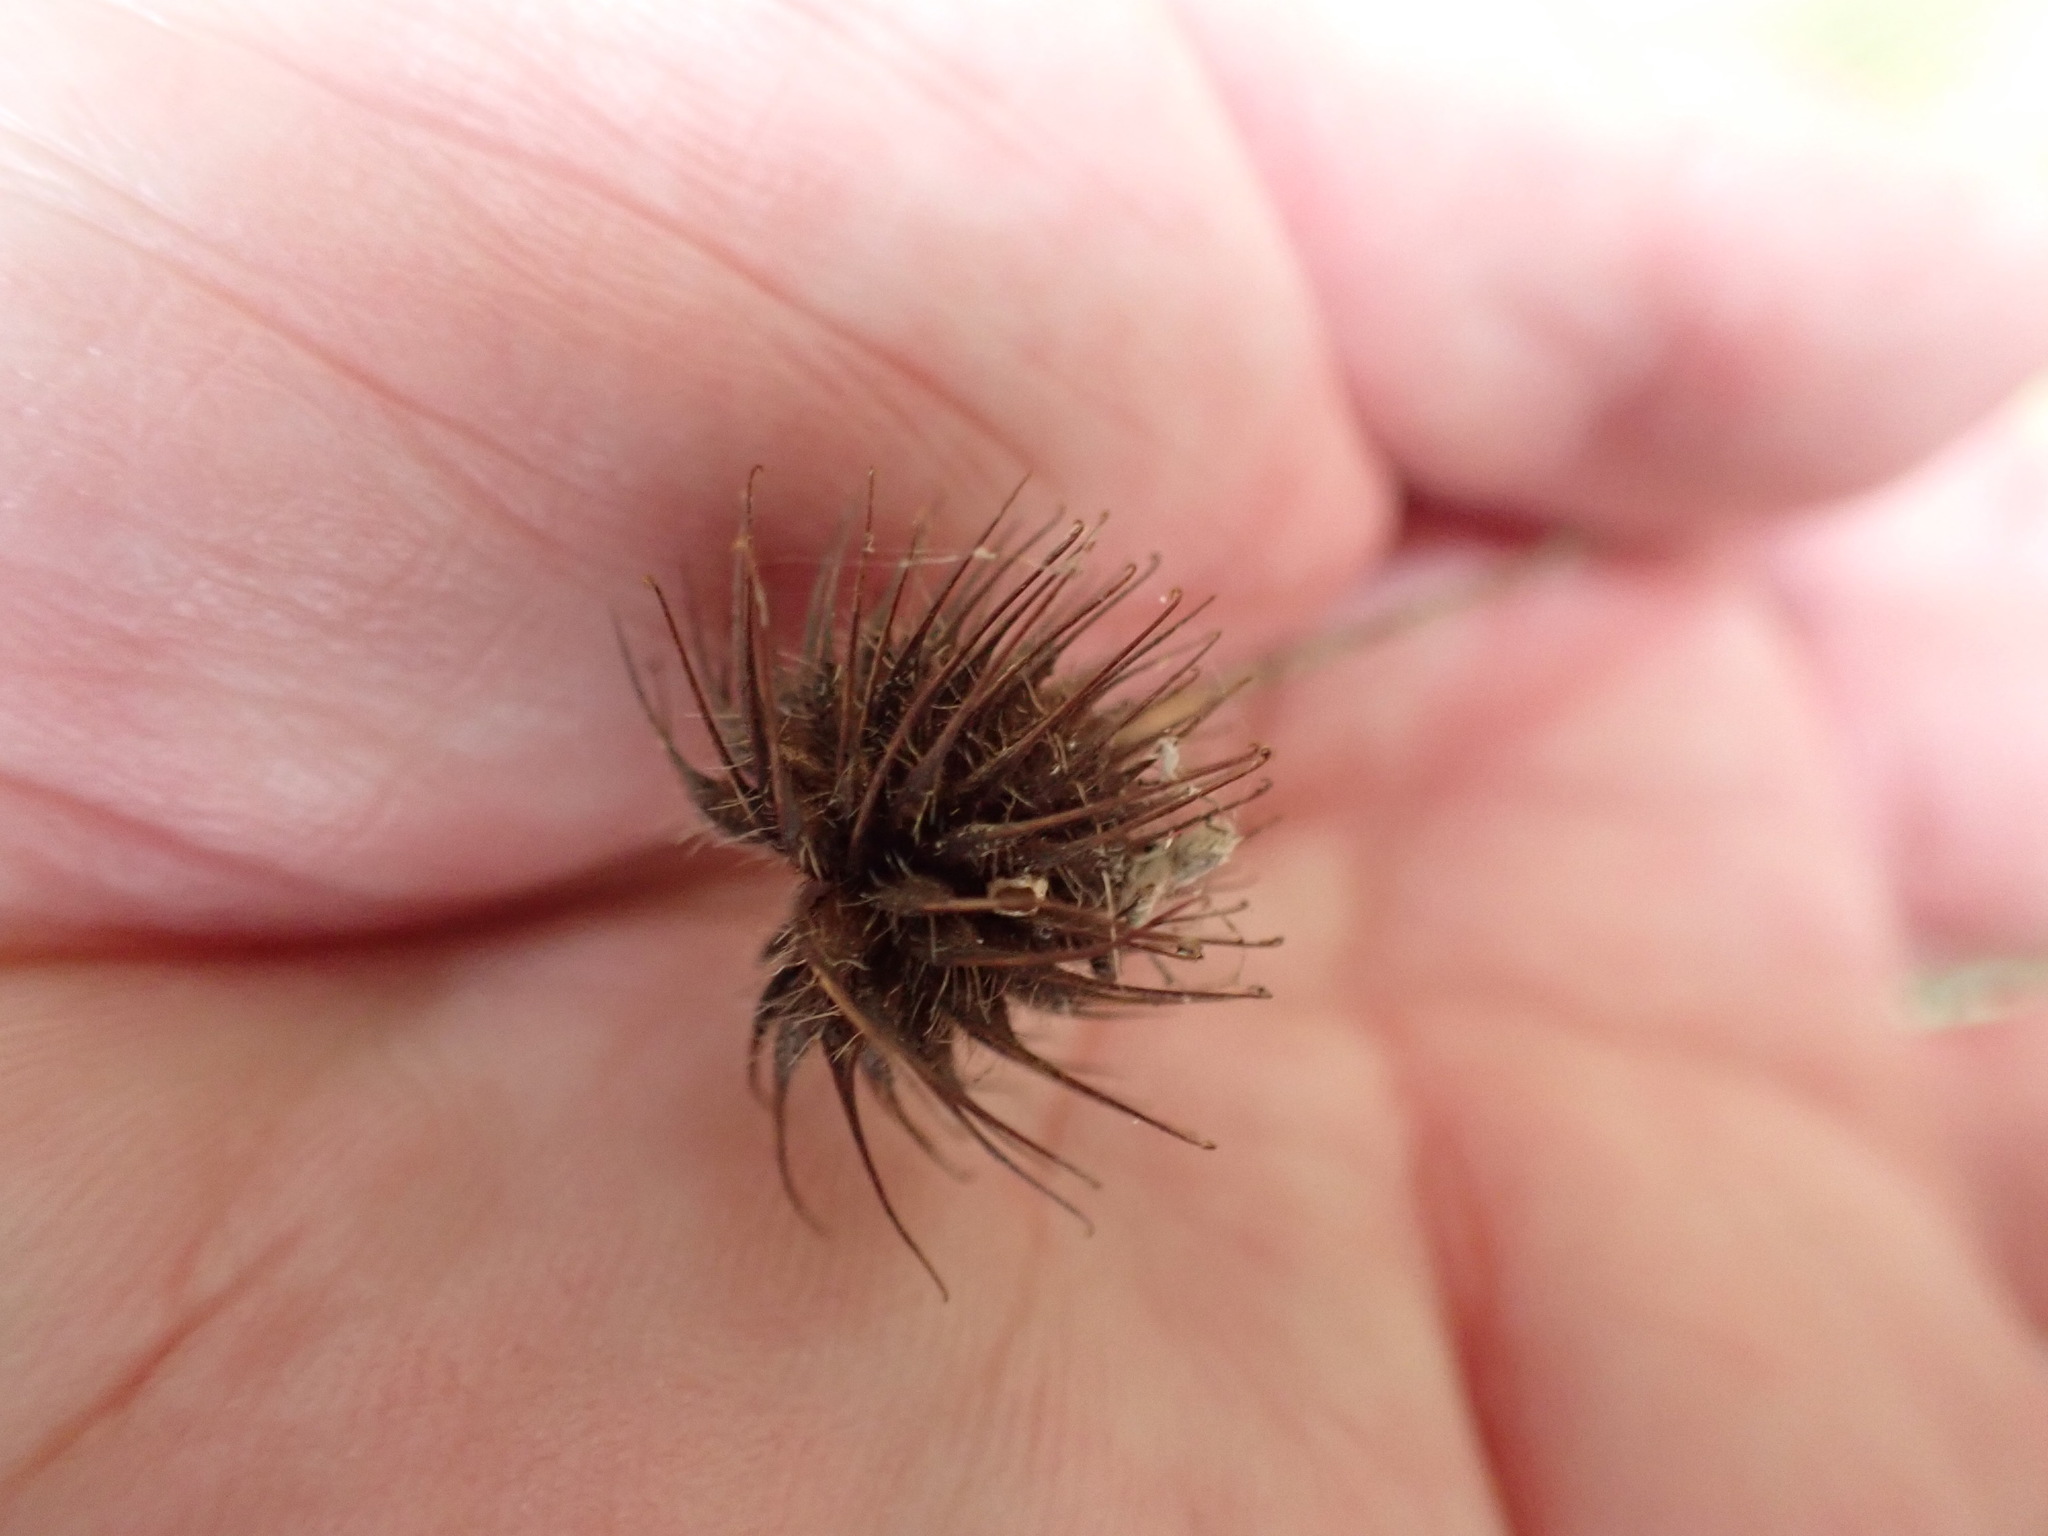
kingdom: Plantae
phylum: Tracheophyta
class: Magnoliopsida
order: Rosales
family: Rosaceae
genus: Geum
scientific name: Geum urbanum
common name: Wood avens
